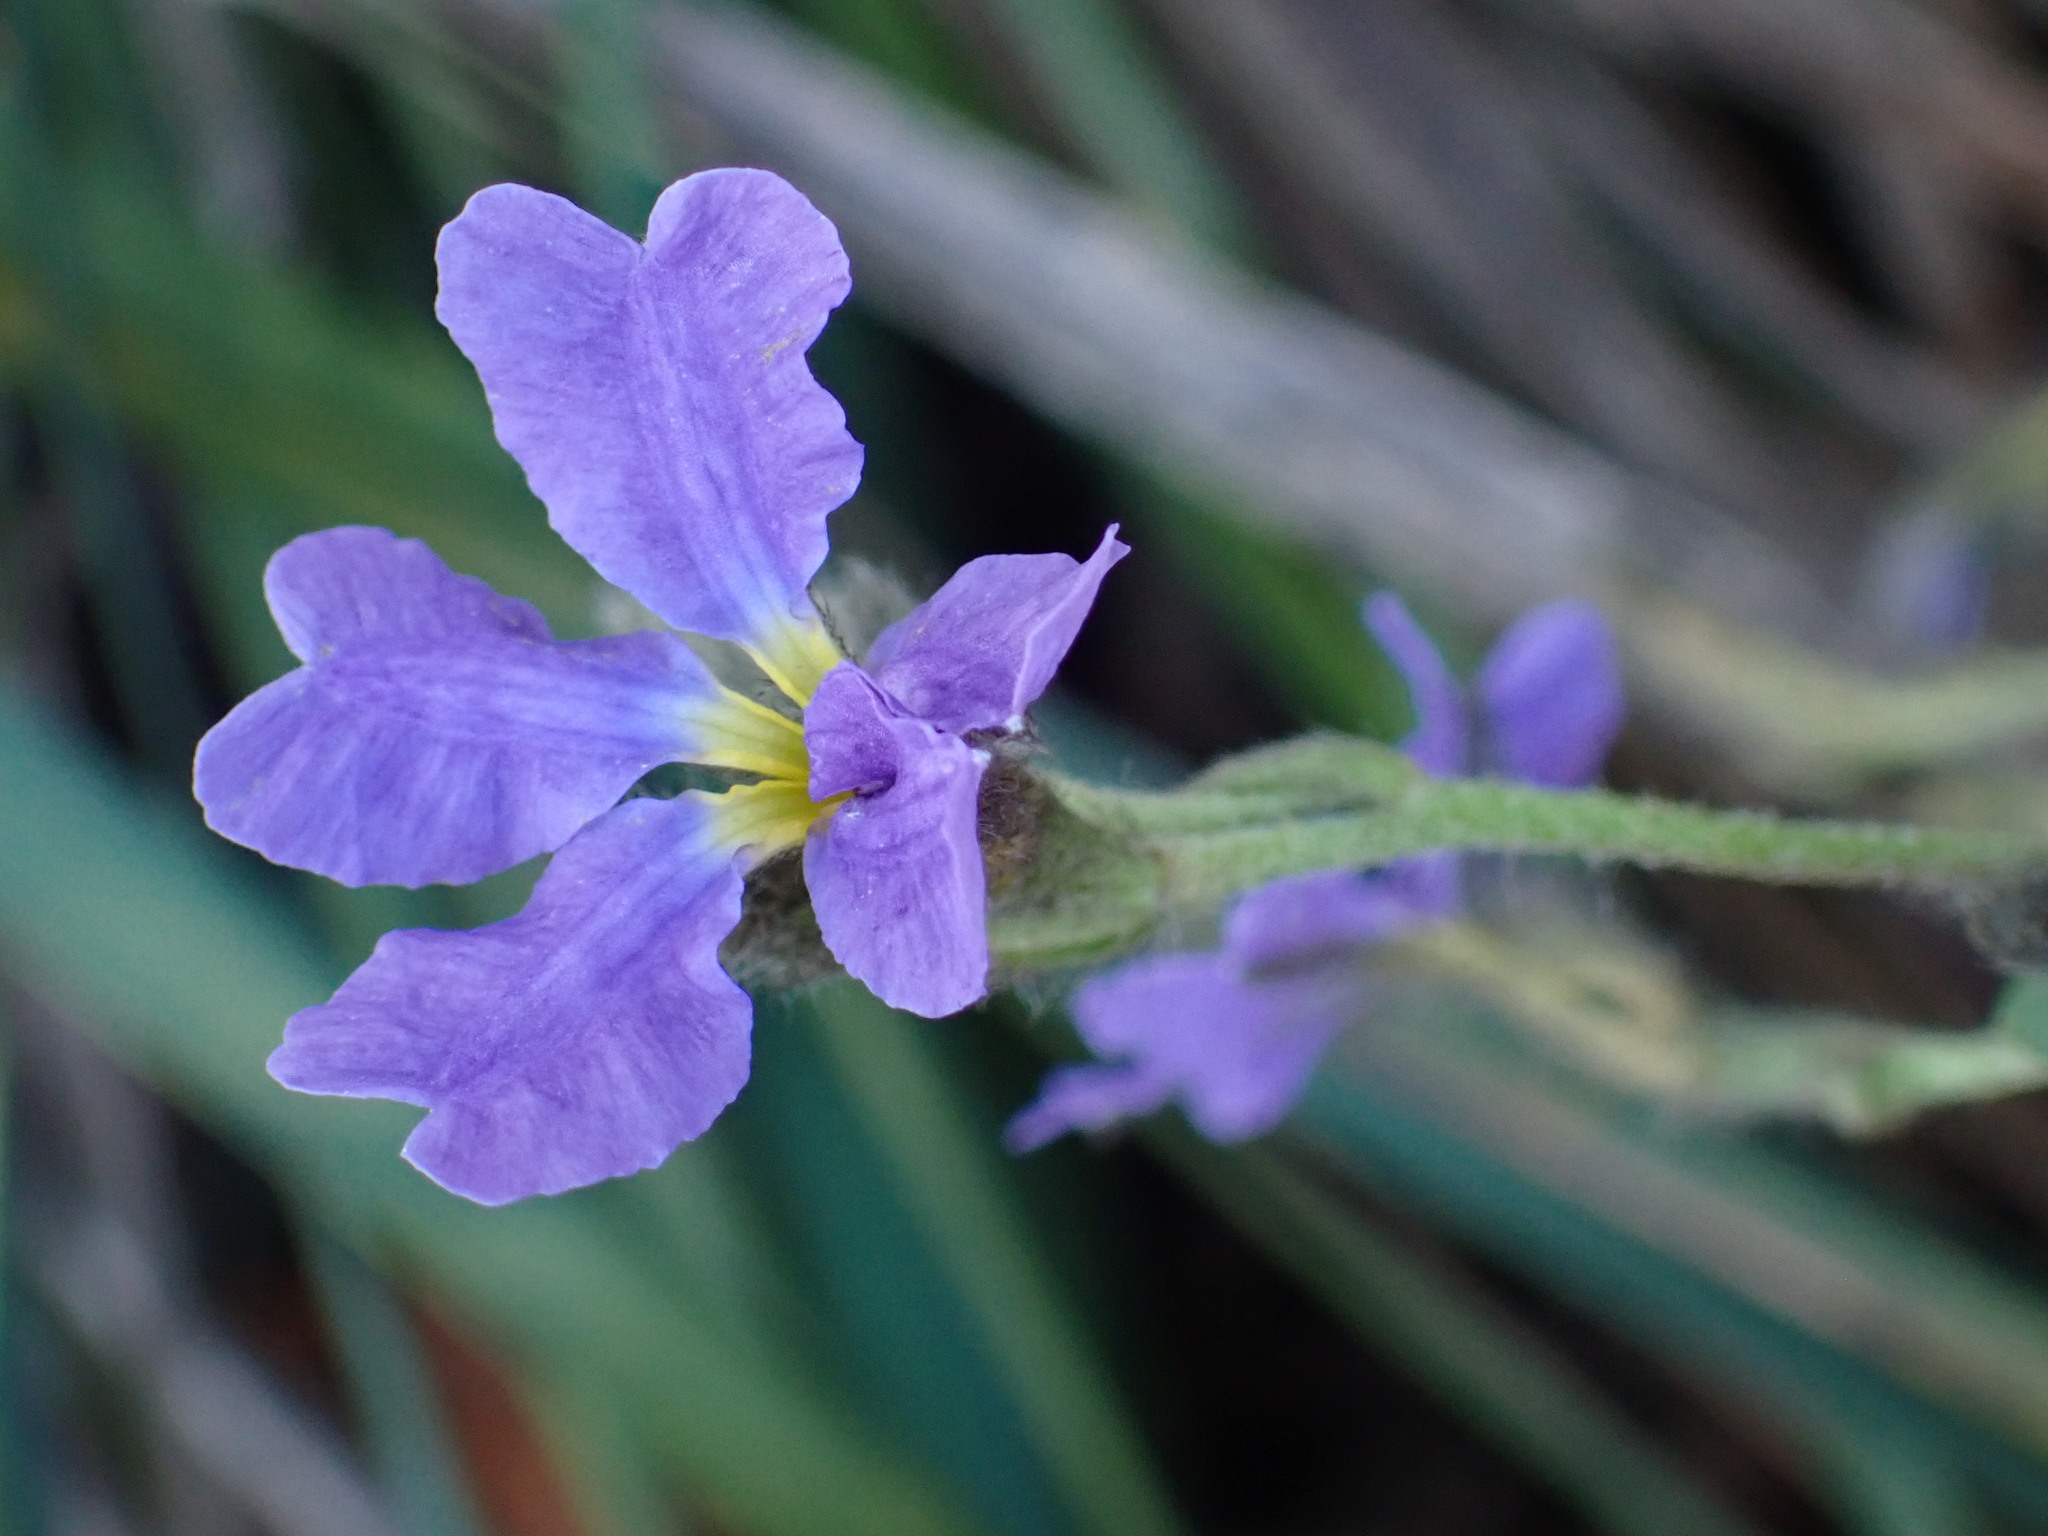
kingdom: Plantae
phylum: Tracheophyta
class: Magnoliopsida
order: Asterales
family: Goodeniaceae
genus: Dampiera
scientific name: Dampiera stricta
